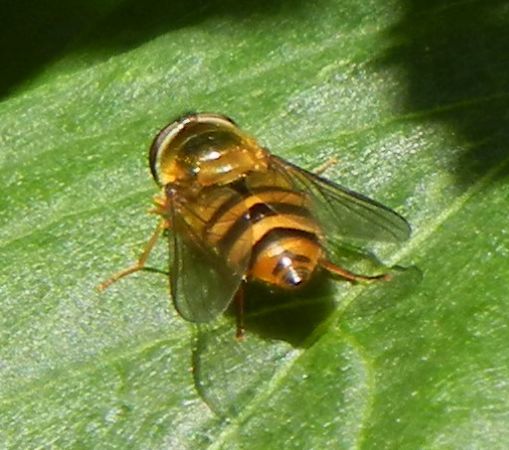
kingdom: Animalia
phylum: Arthropoda
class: Insecta
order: Diptera
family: Syrphidae
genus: Epistrophe
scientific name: Epistrophe
